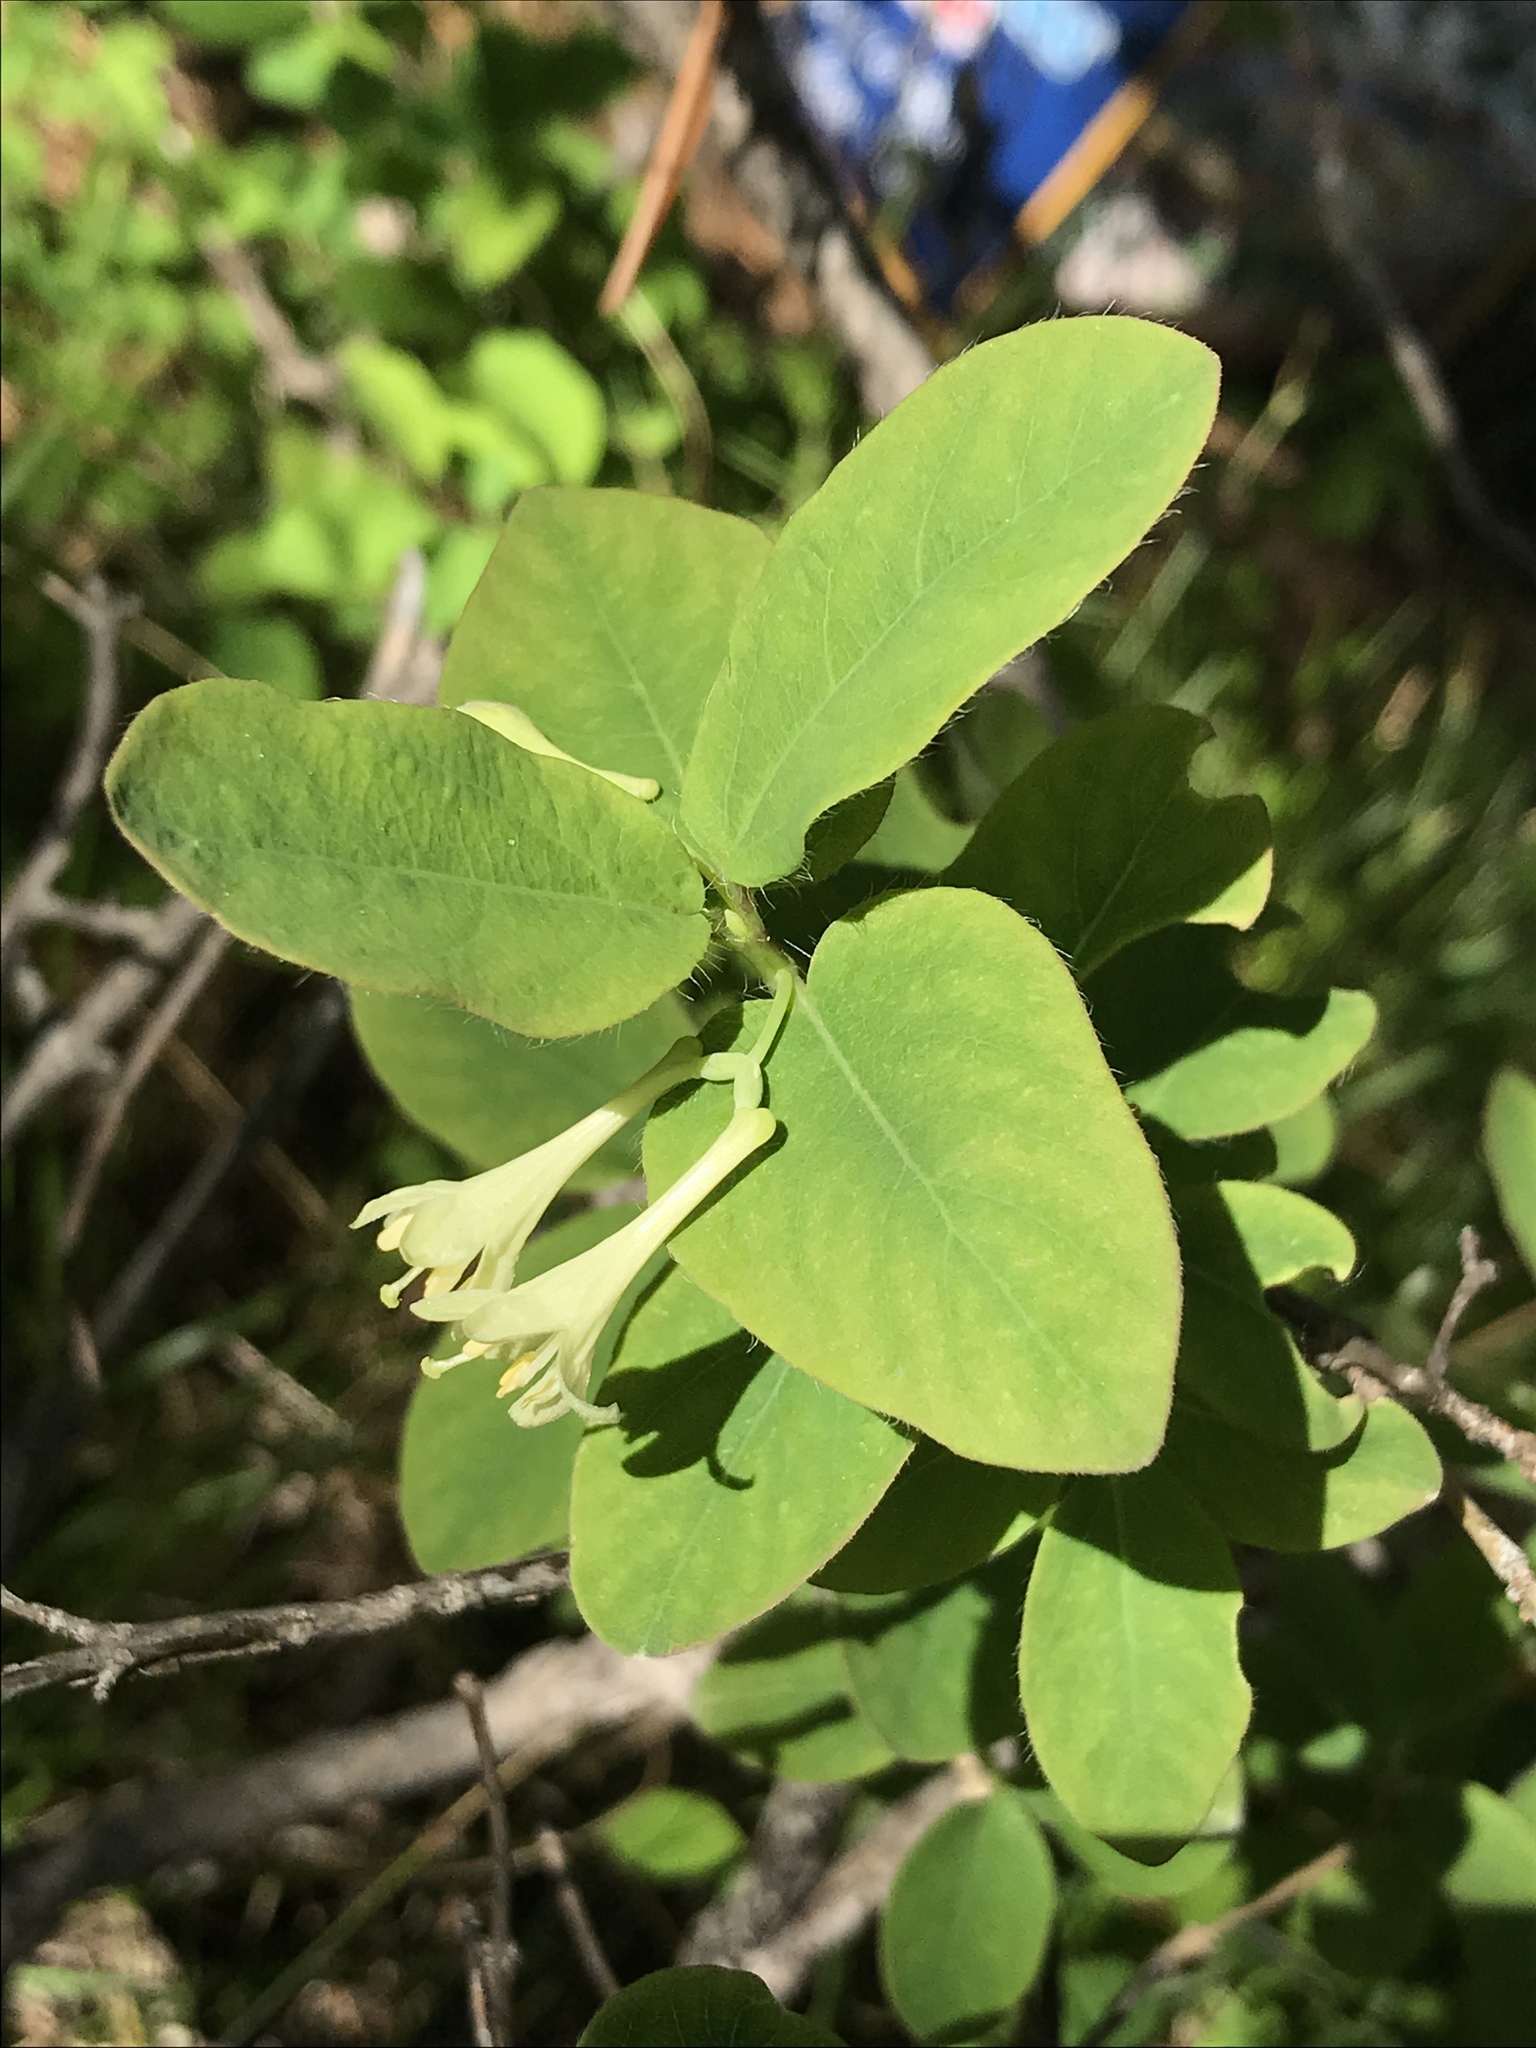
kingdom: Plantae
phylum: Tracheophyta
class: Magnoliopsida
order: Dipsacales
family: Caprifoliaceae
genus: Lonicera
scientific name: Lonicera utahensis
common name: Utah honeysuckle
